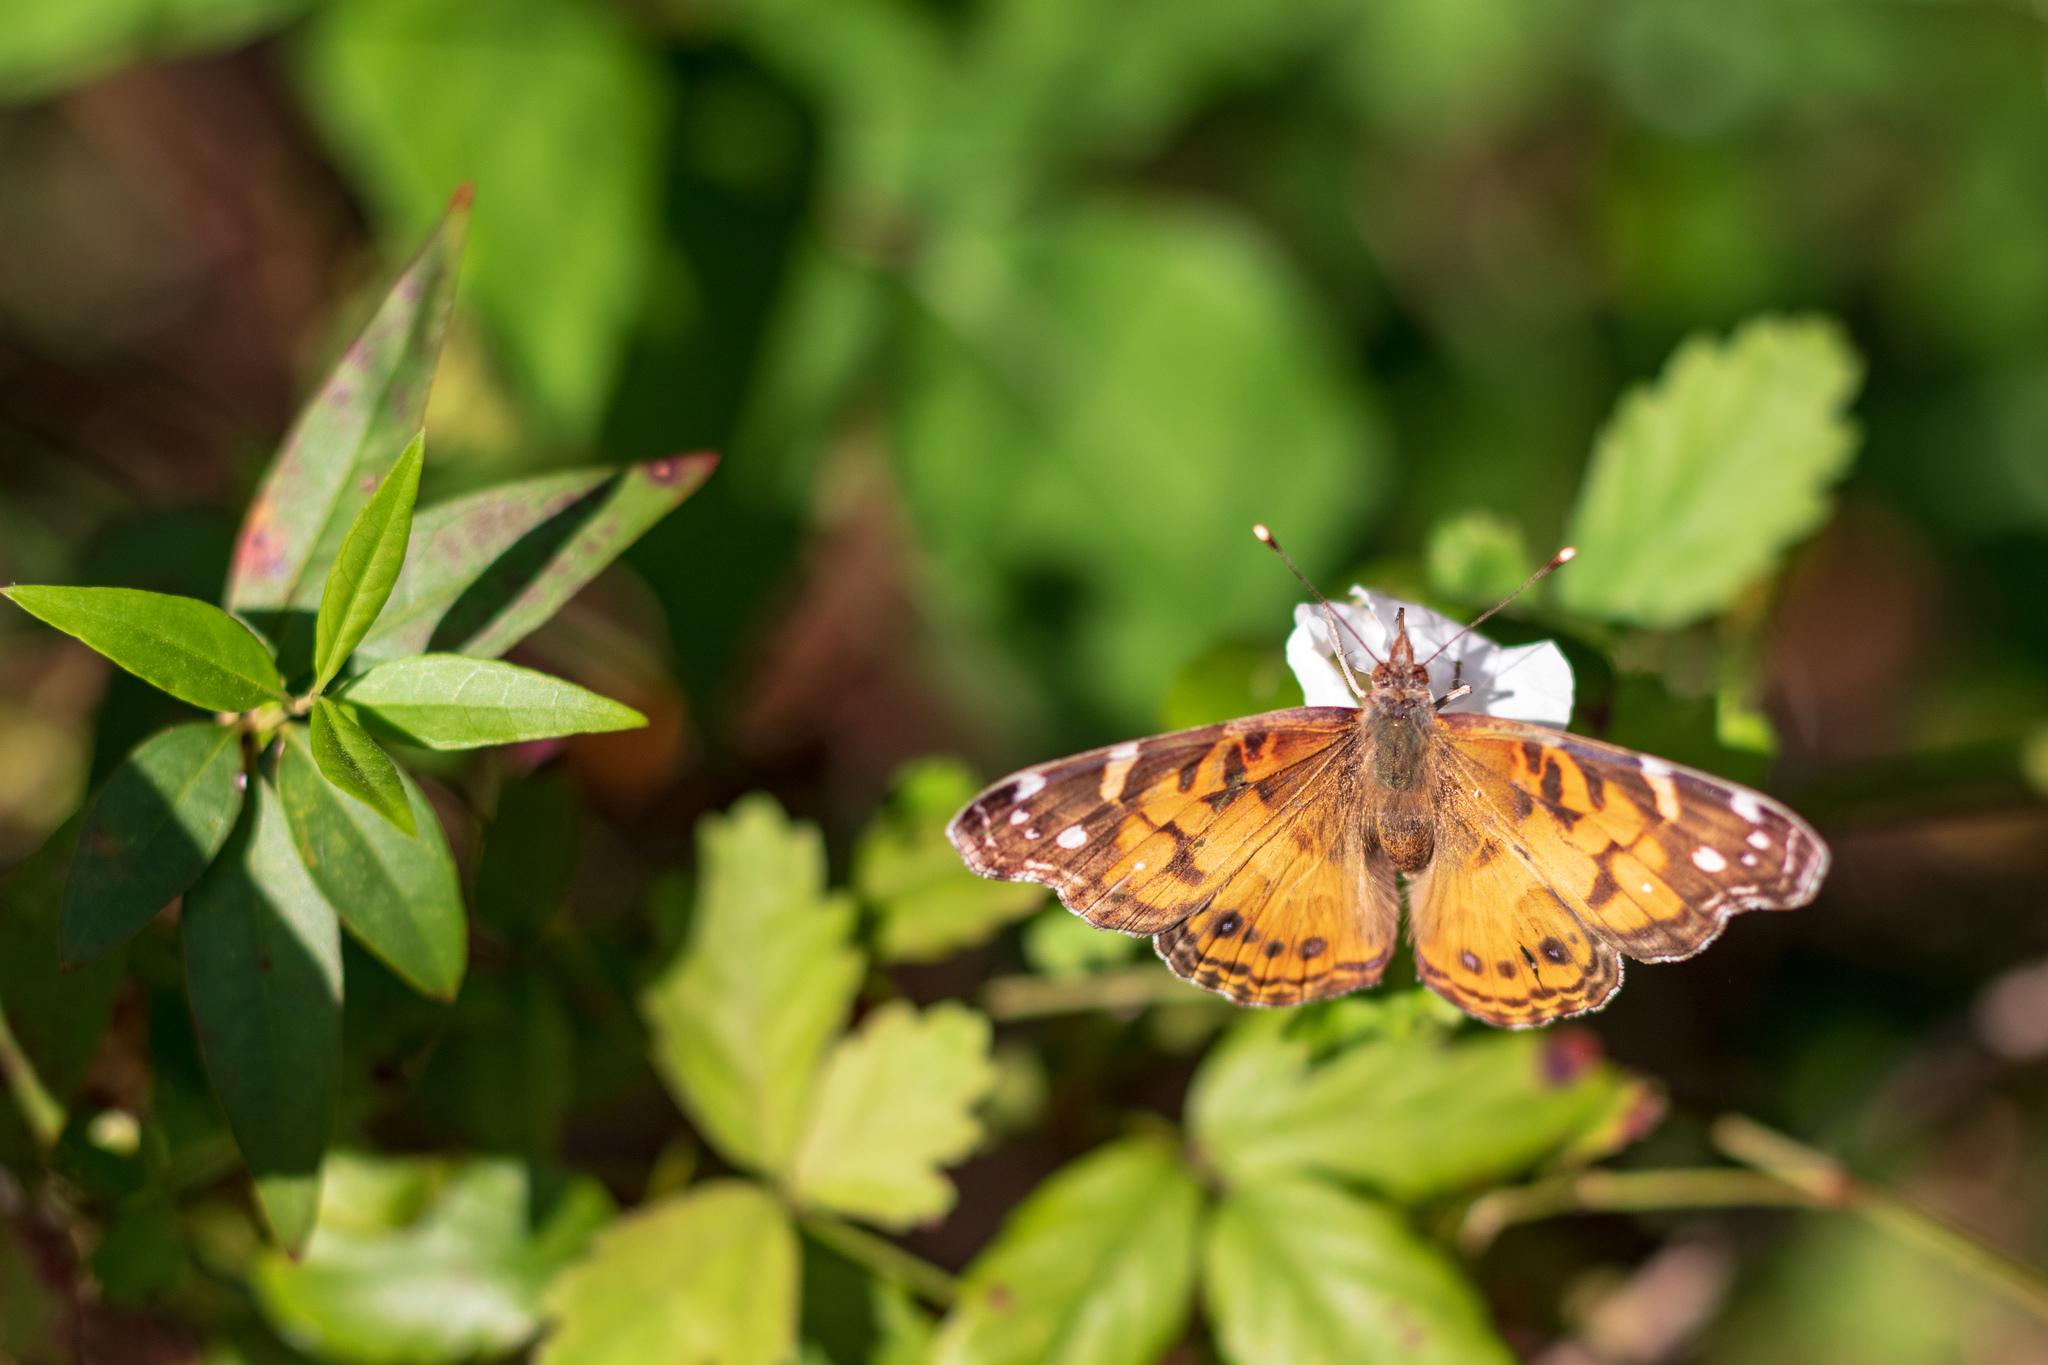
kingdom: Animalia
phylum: Arthropoda
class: Insecta
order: Lepidoptera
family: Nymphalidae
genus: Vanessa
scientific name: Vanessa virginiensis
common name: American lady
